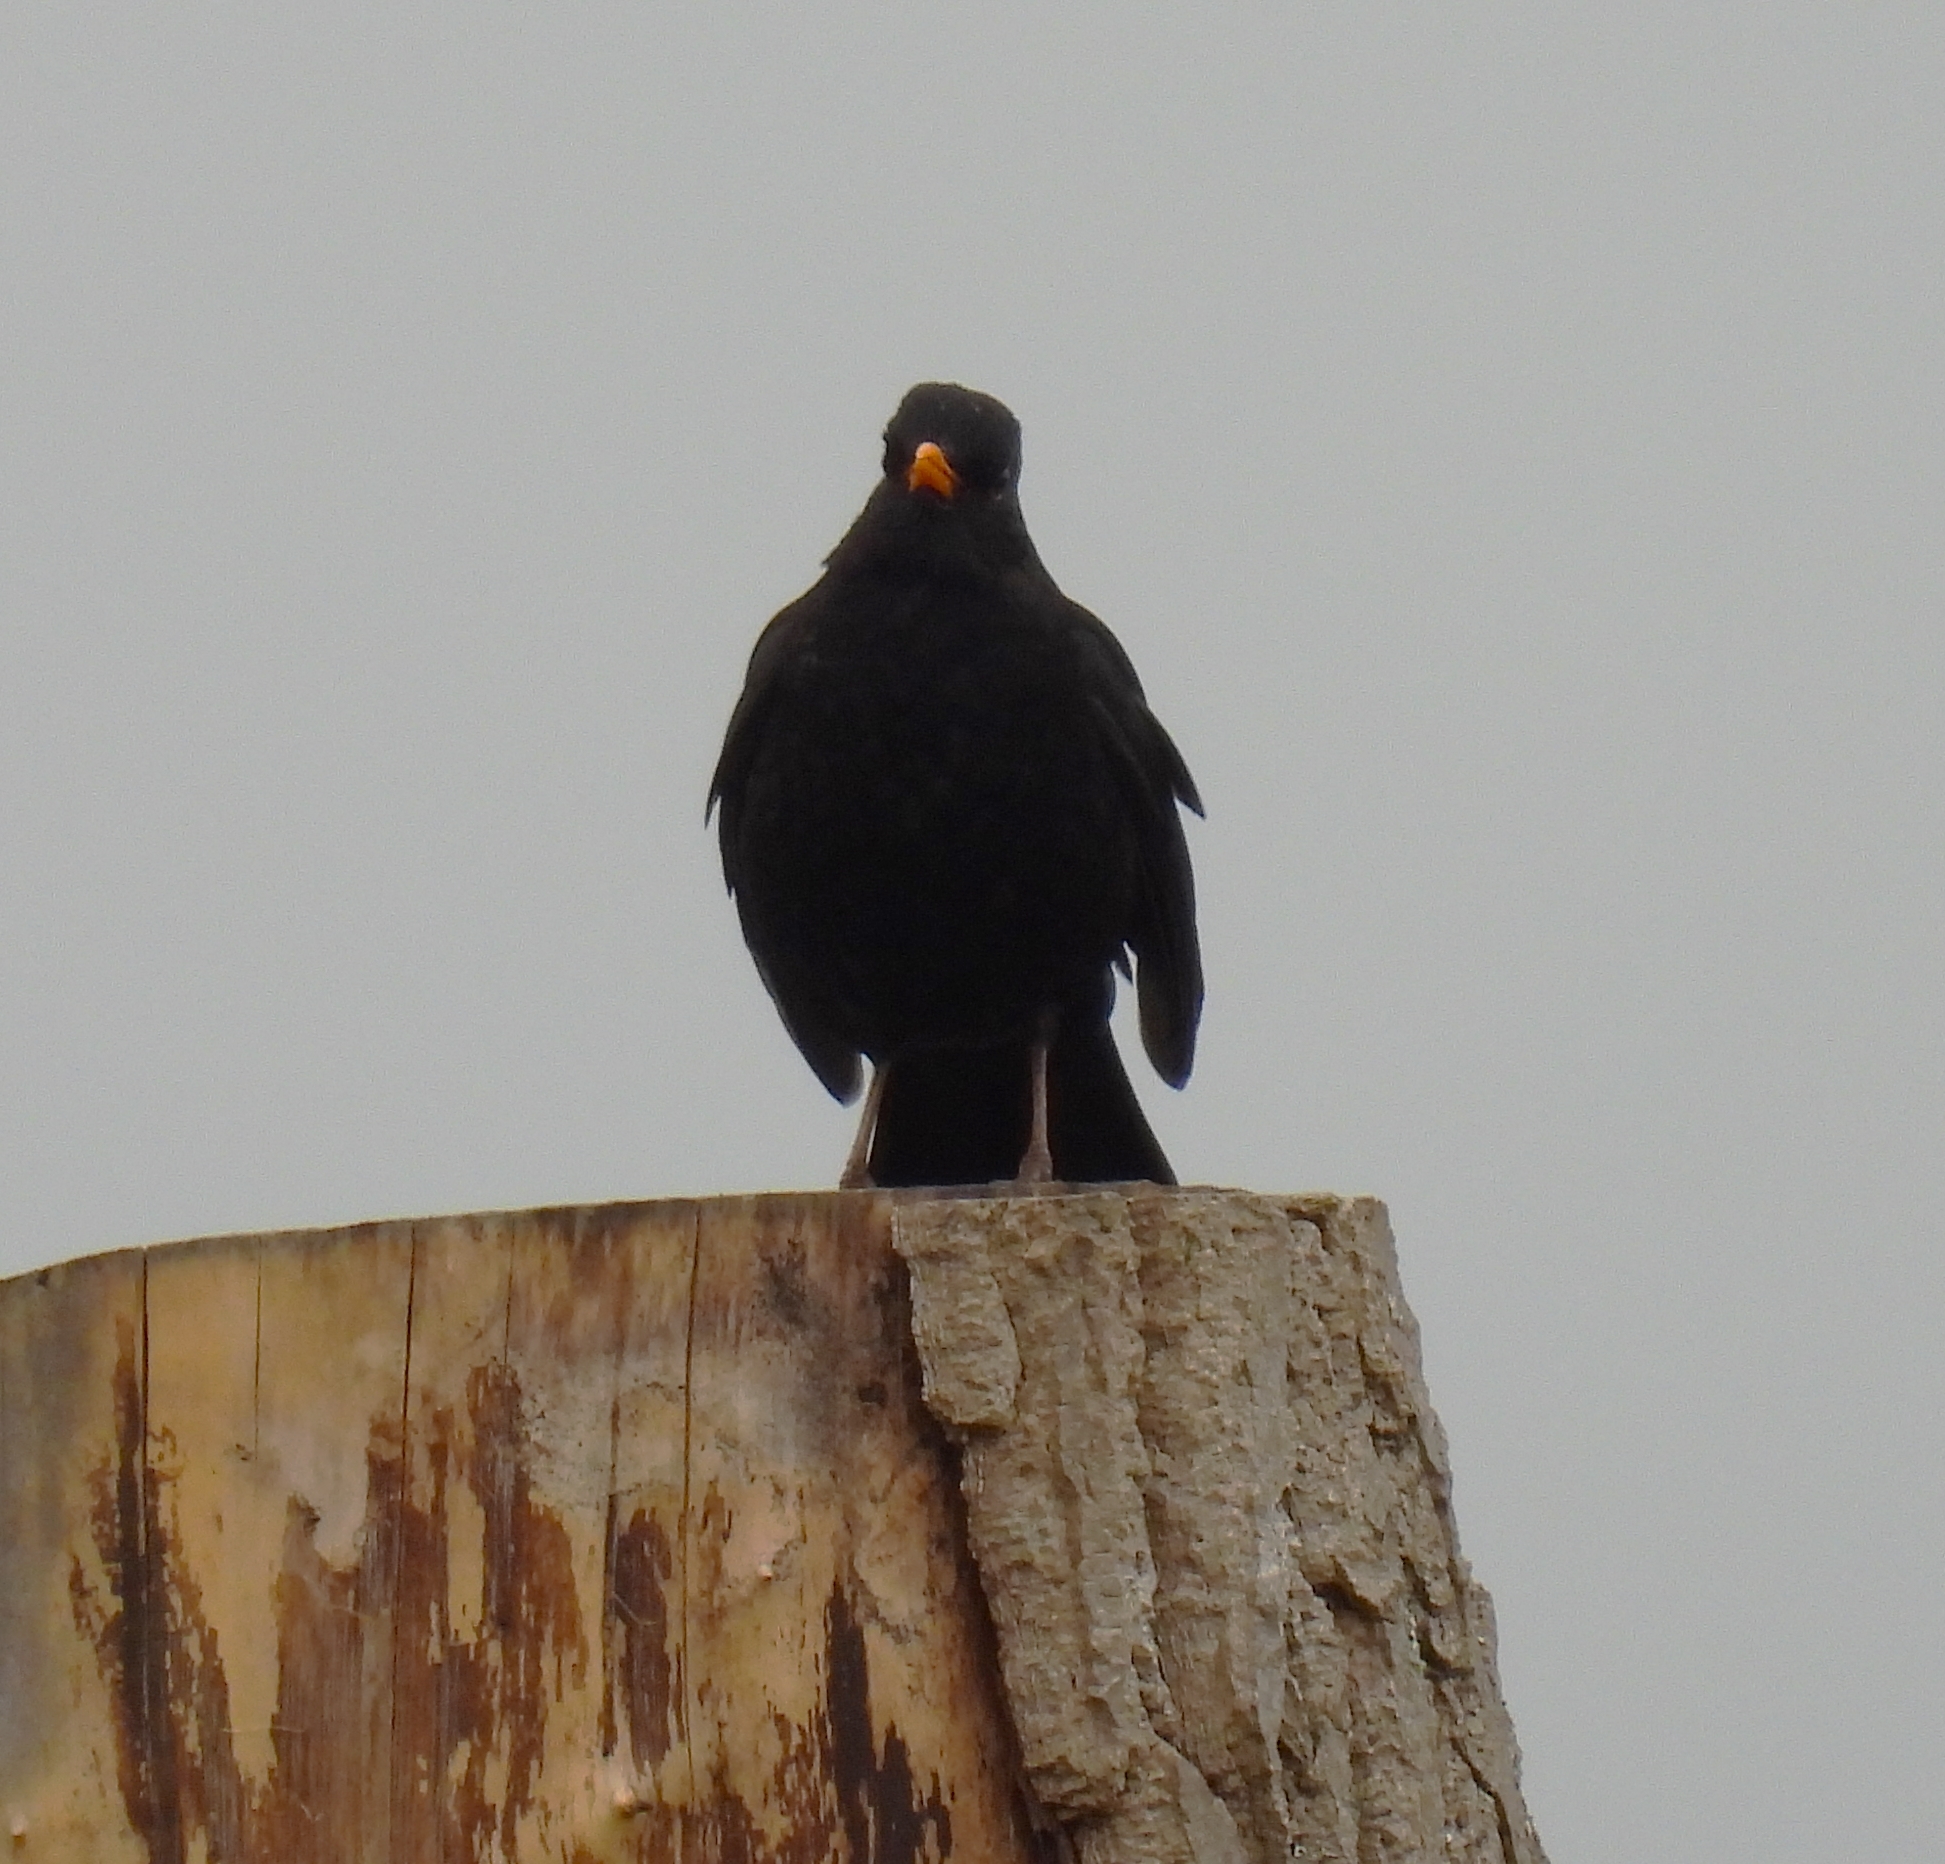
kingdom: Animalia
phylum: Chordata
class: Aves
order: Passeriformes
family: Turdidae
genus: Turdus
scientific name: Turdus merula
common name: Common blackbird
